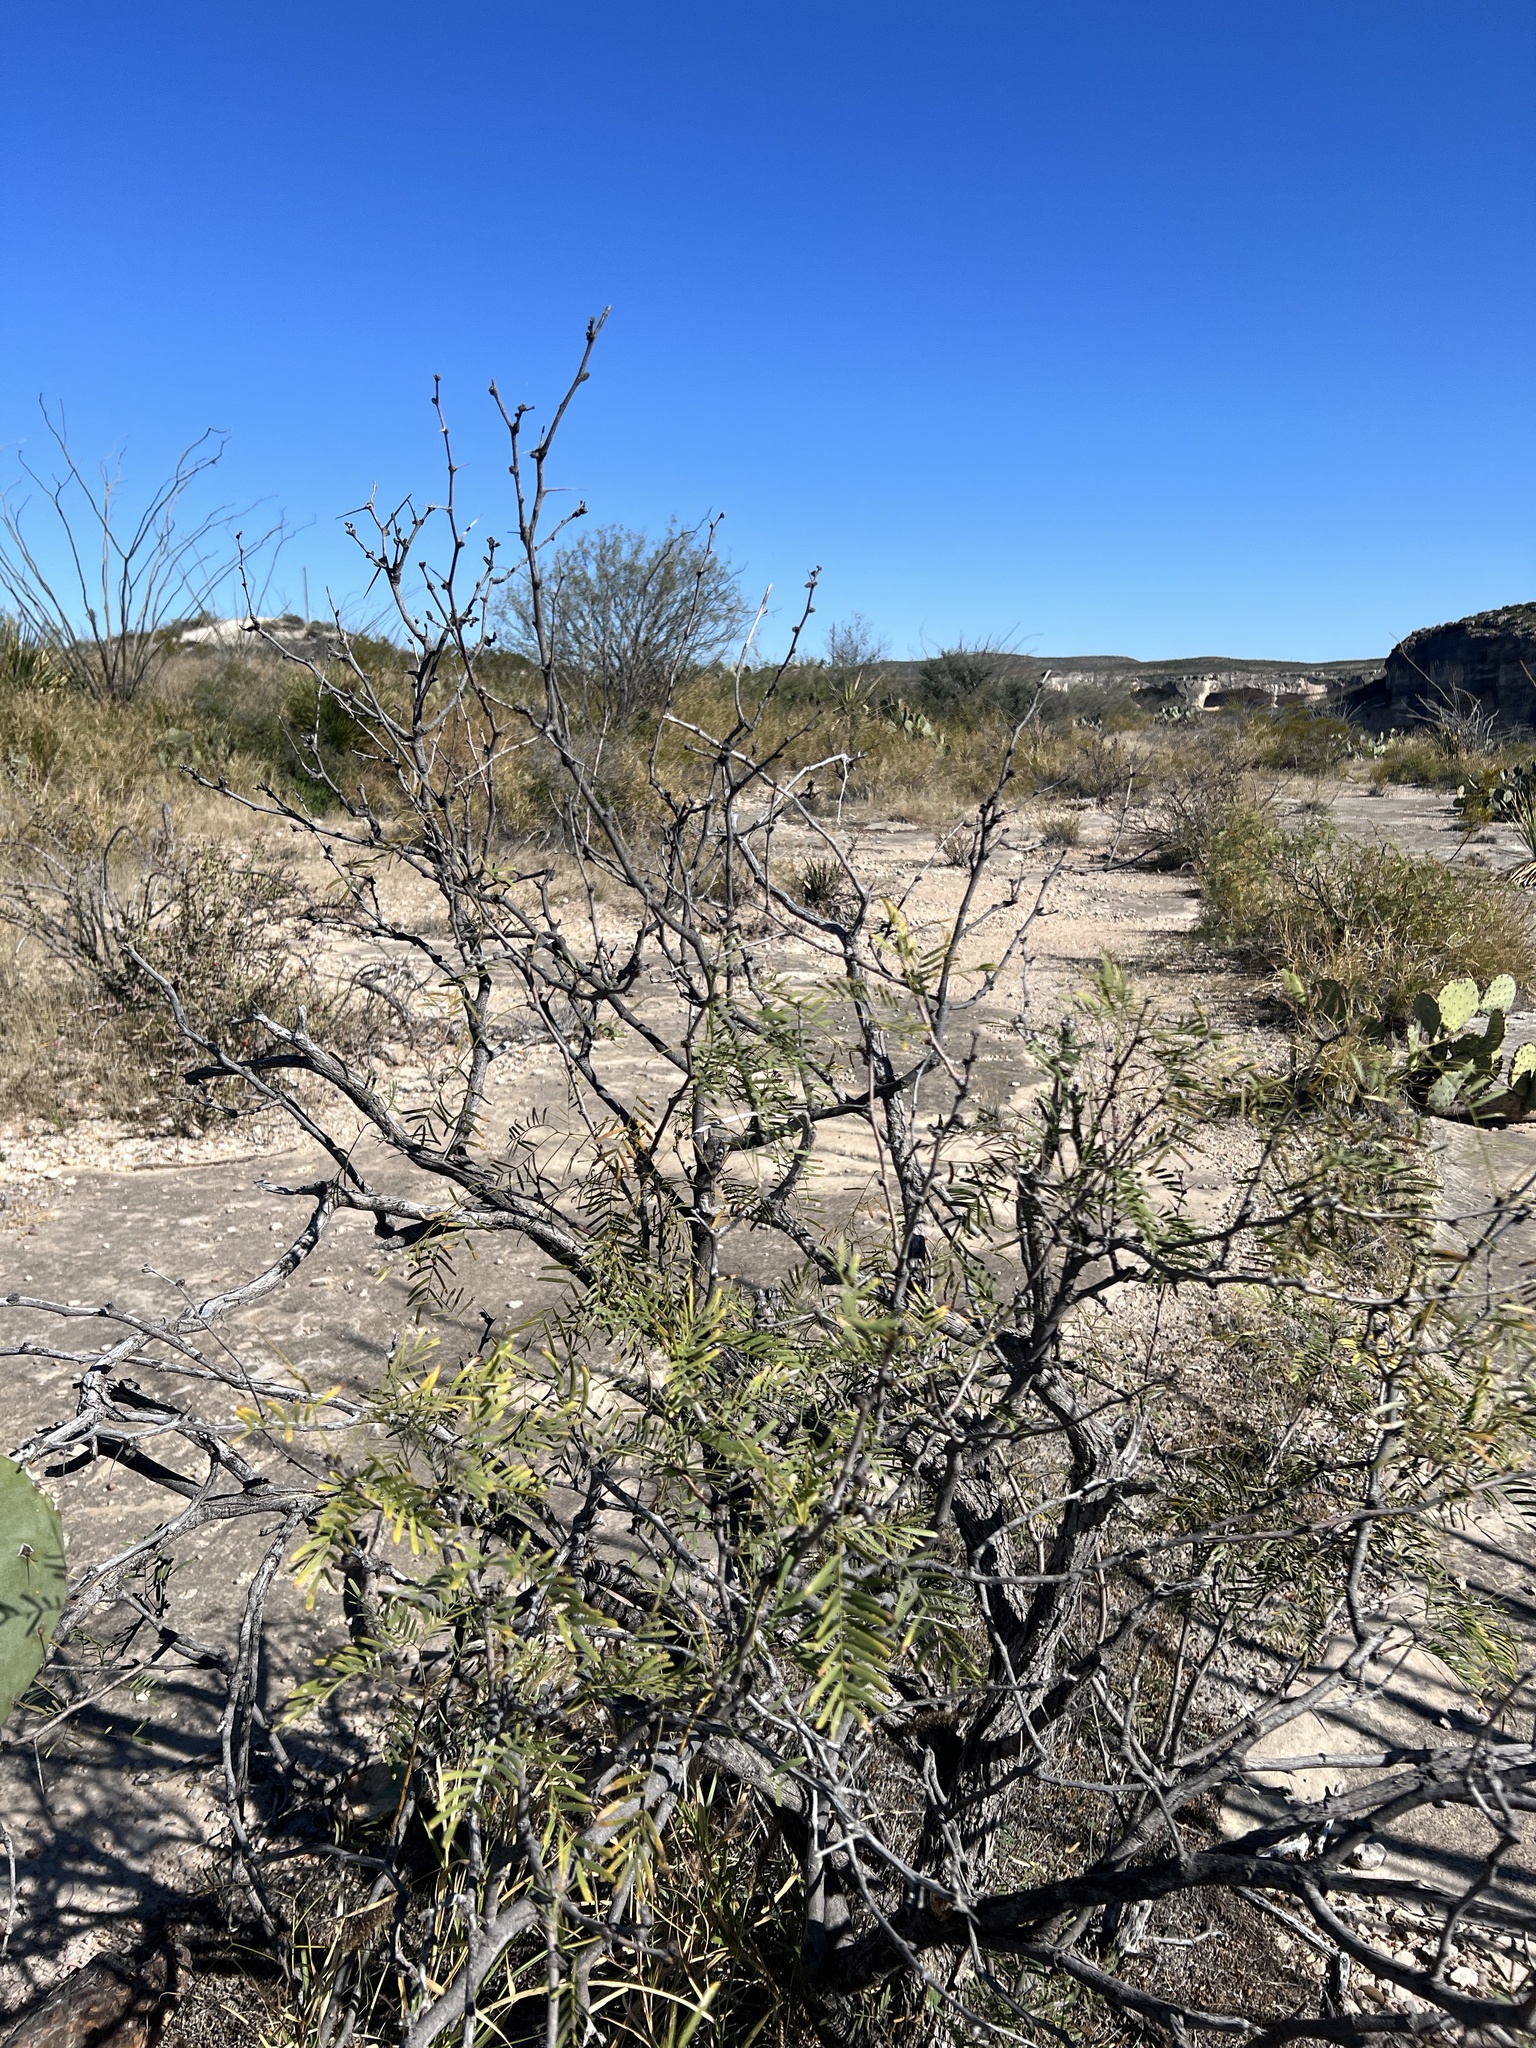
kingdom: Plantae
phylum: Tracheophyta
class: Magnoliopsida
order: Fabales
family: Fabaceae
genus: Prosopis
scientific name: Prosopis glandulosa
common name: Honey mesquite
